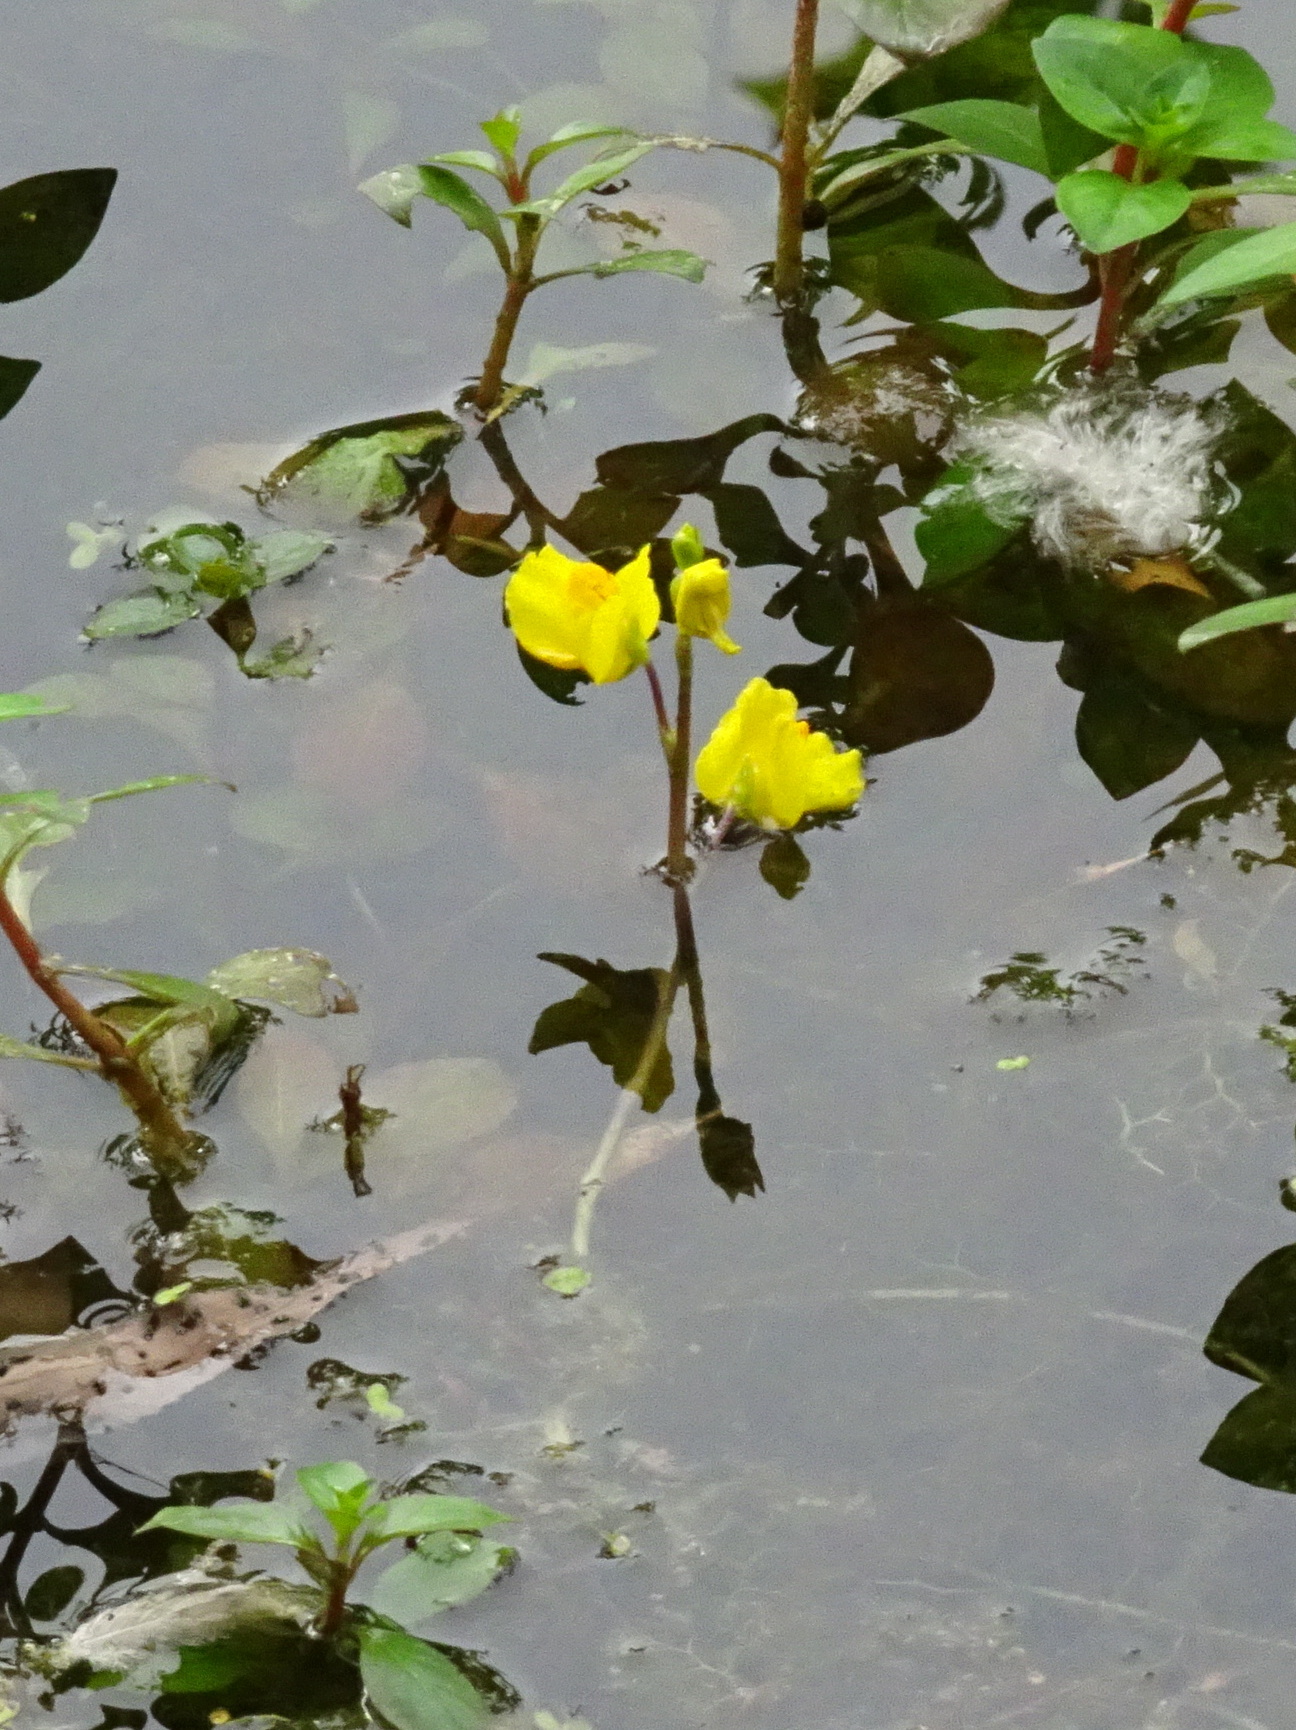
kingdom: Plantae
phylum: Tracheophyta
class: Magnoliopsida
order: Lamiales
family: Lentibulariaceae
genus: Utricularia
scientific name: Utricularia macrorhiza
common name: Common bladderwort
